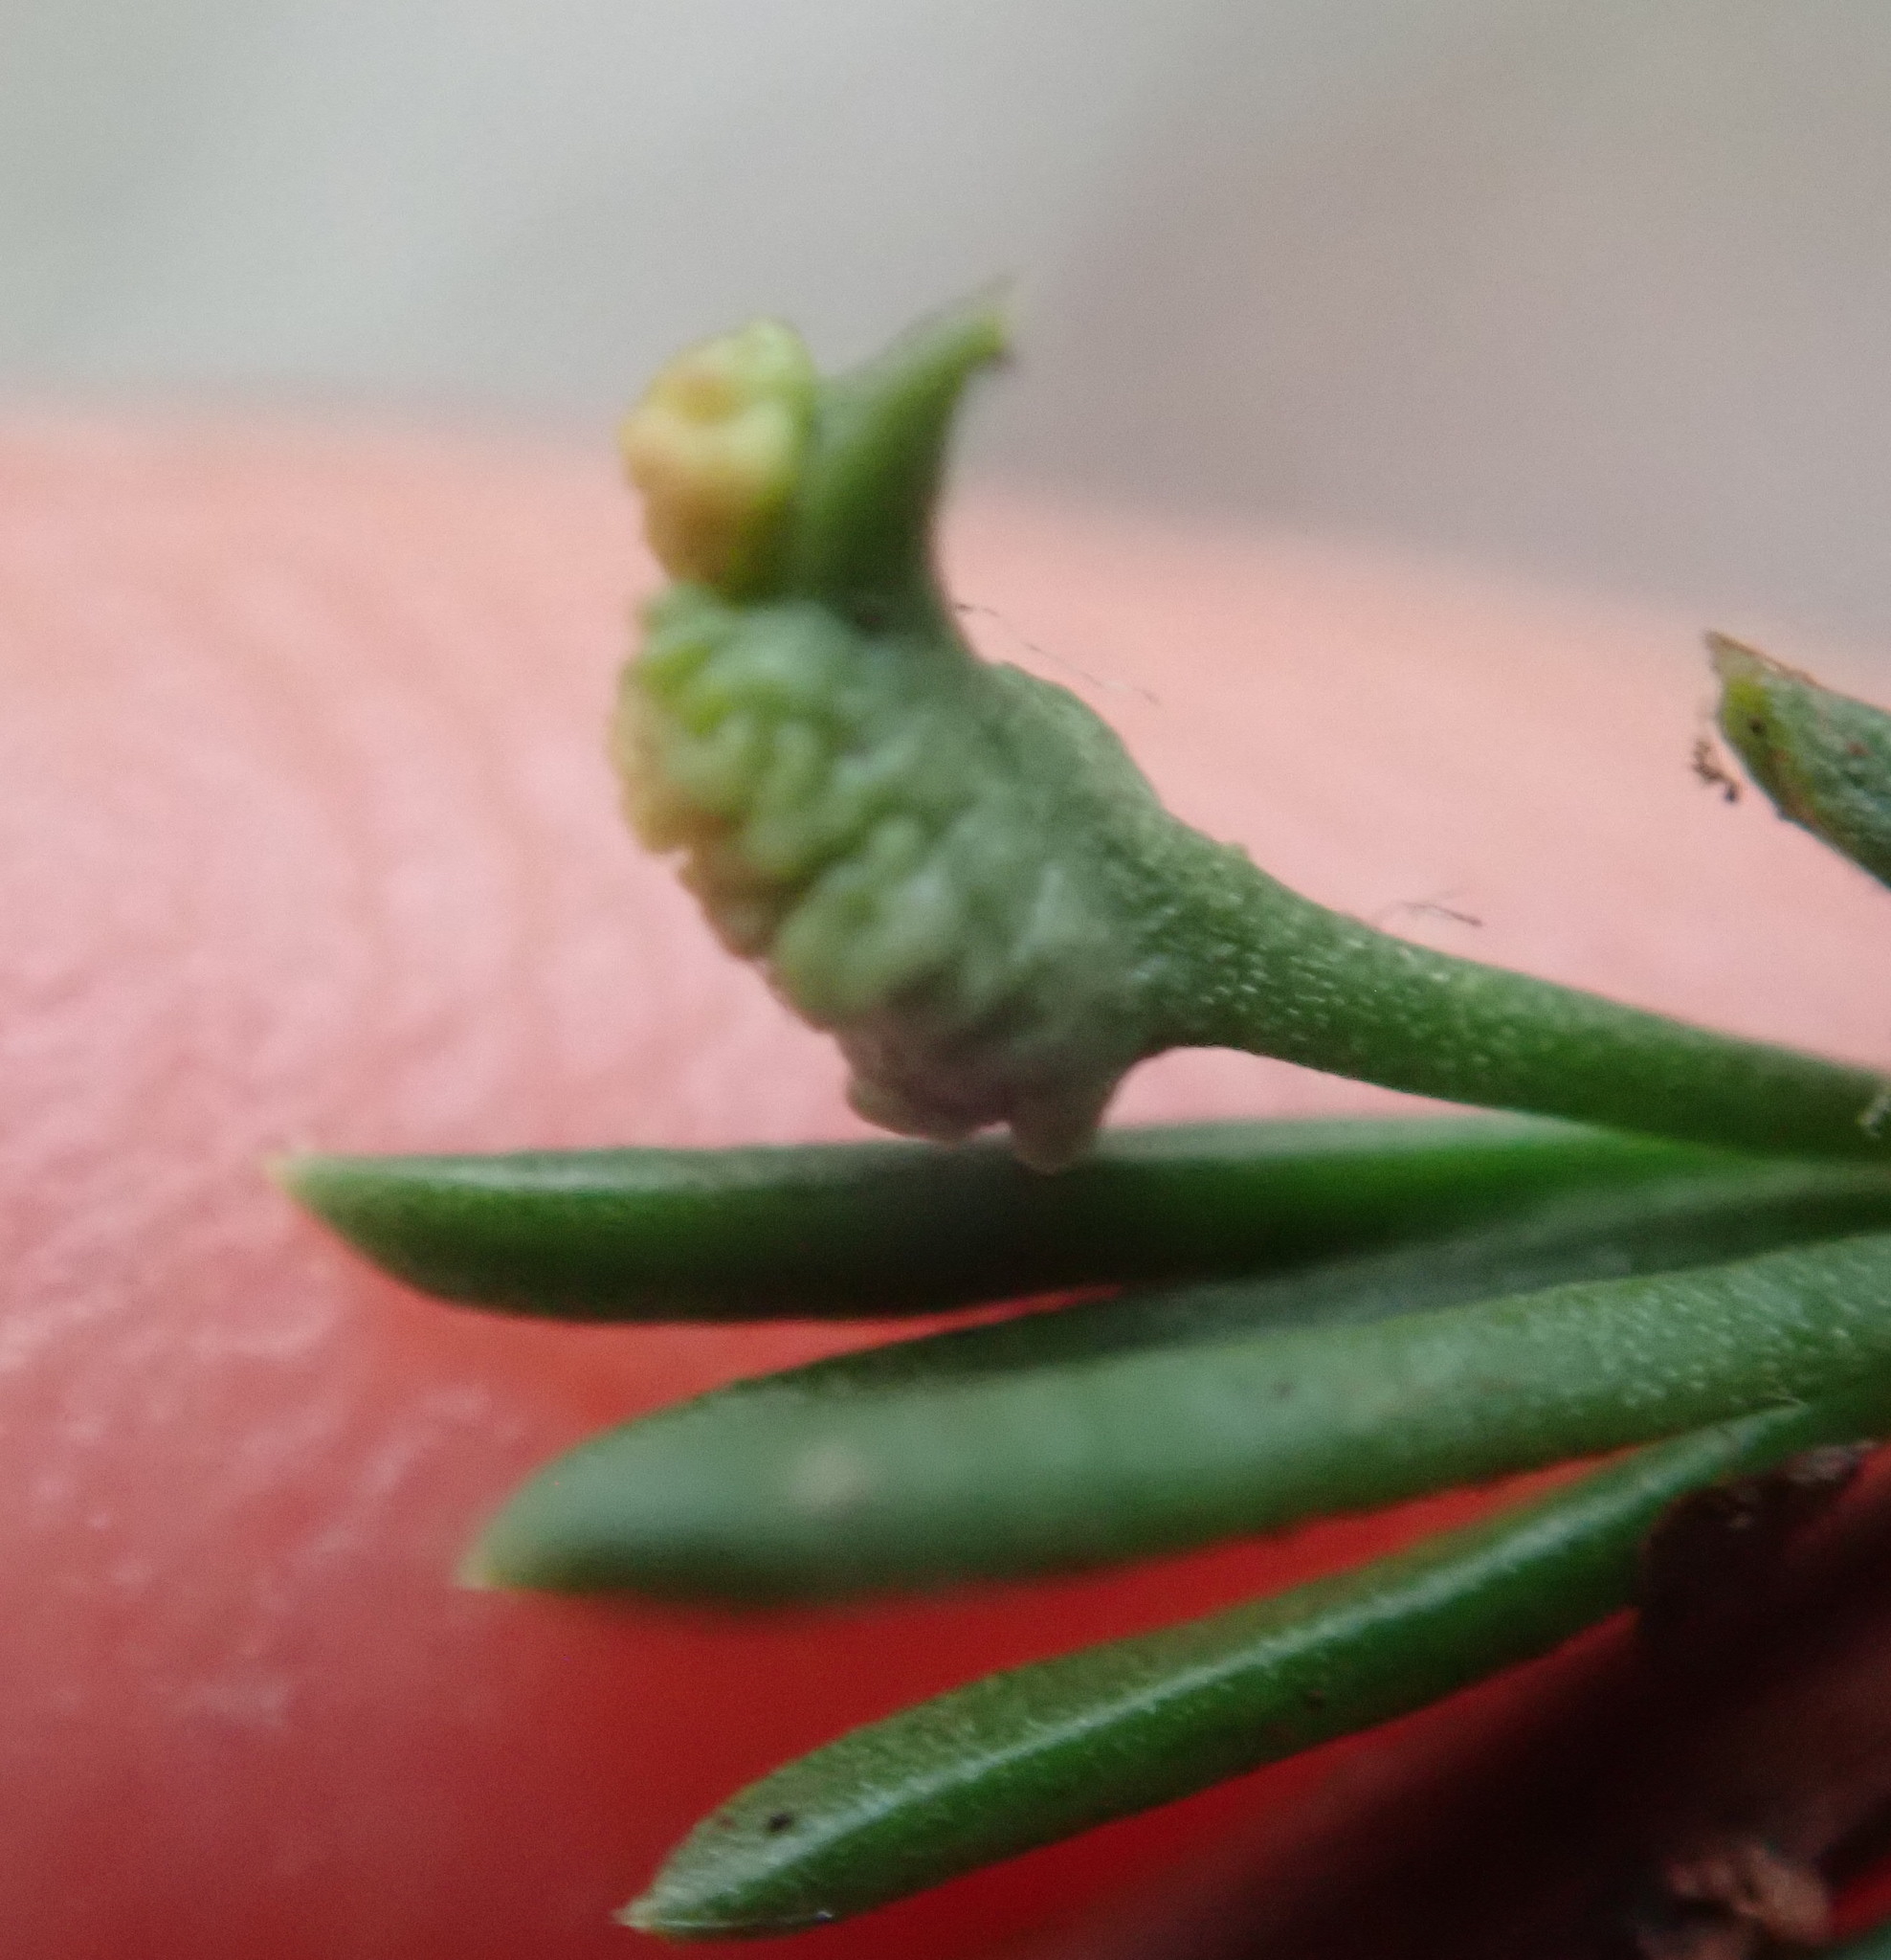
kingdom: Animalia
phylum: Arthropoda
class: Arachnida
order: Trombidiformes
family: Eriophyidae
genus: Eriophyes
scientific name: Eriophyes
